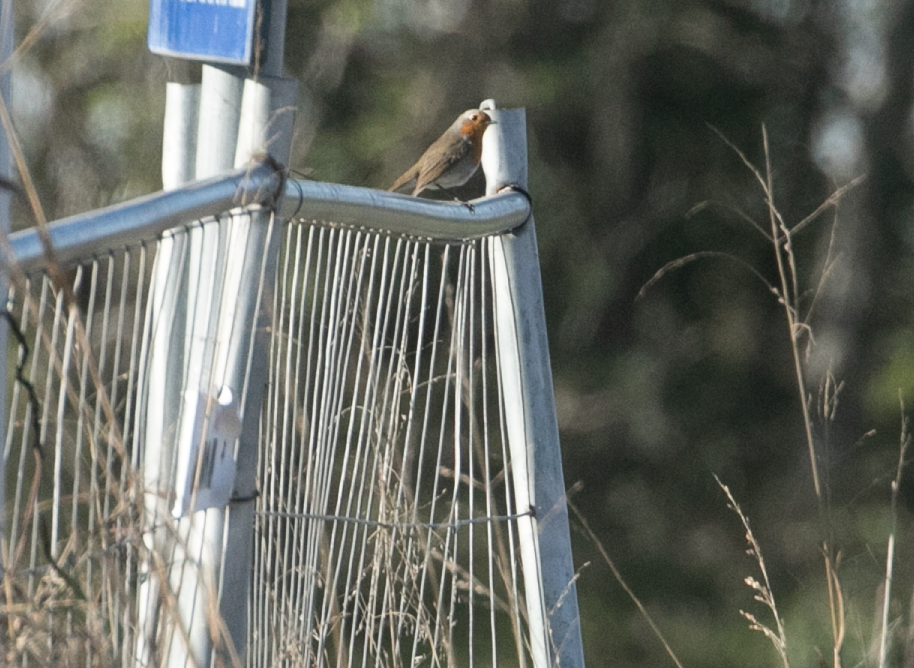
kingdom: Animalia
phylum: Chordata
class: Aves
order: Passeriformes
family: Muscicapidae
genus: Erithacus
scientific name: Erithacus rubecula
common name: European robin
